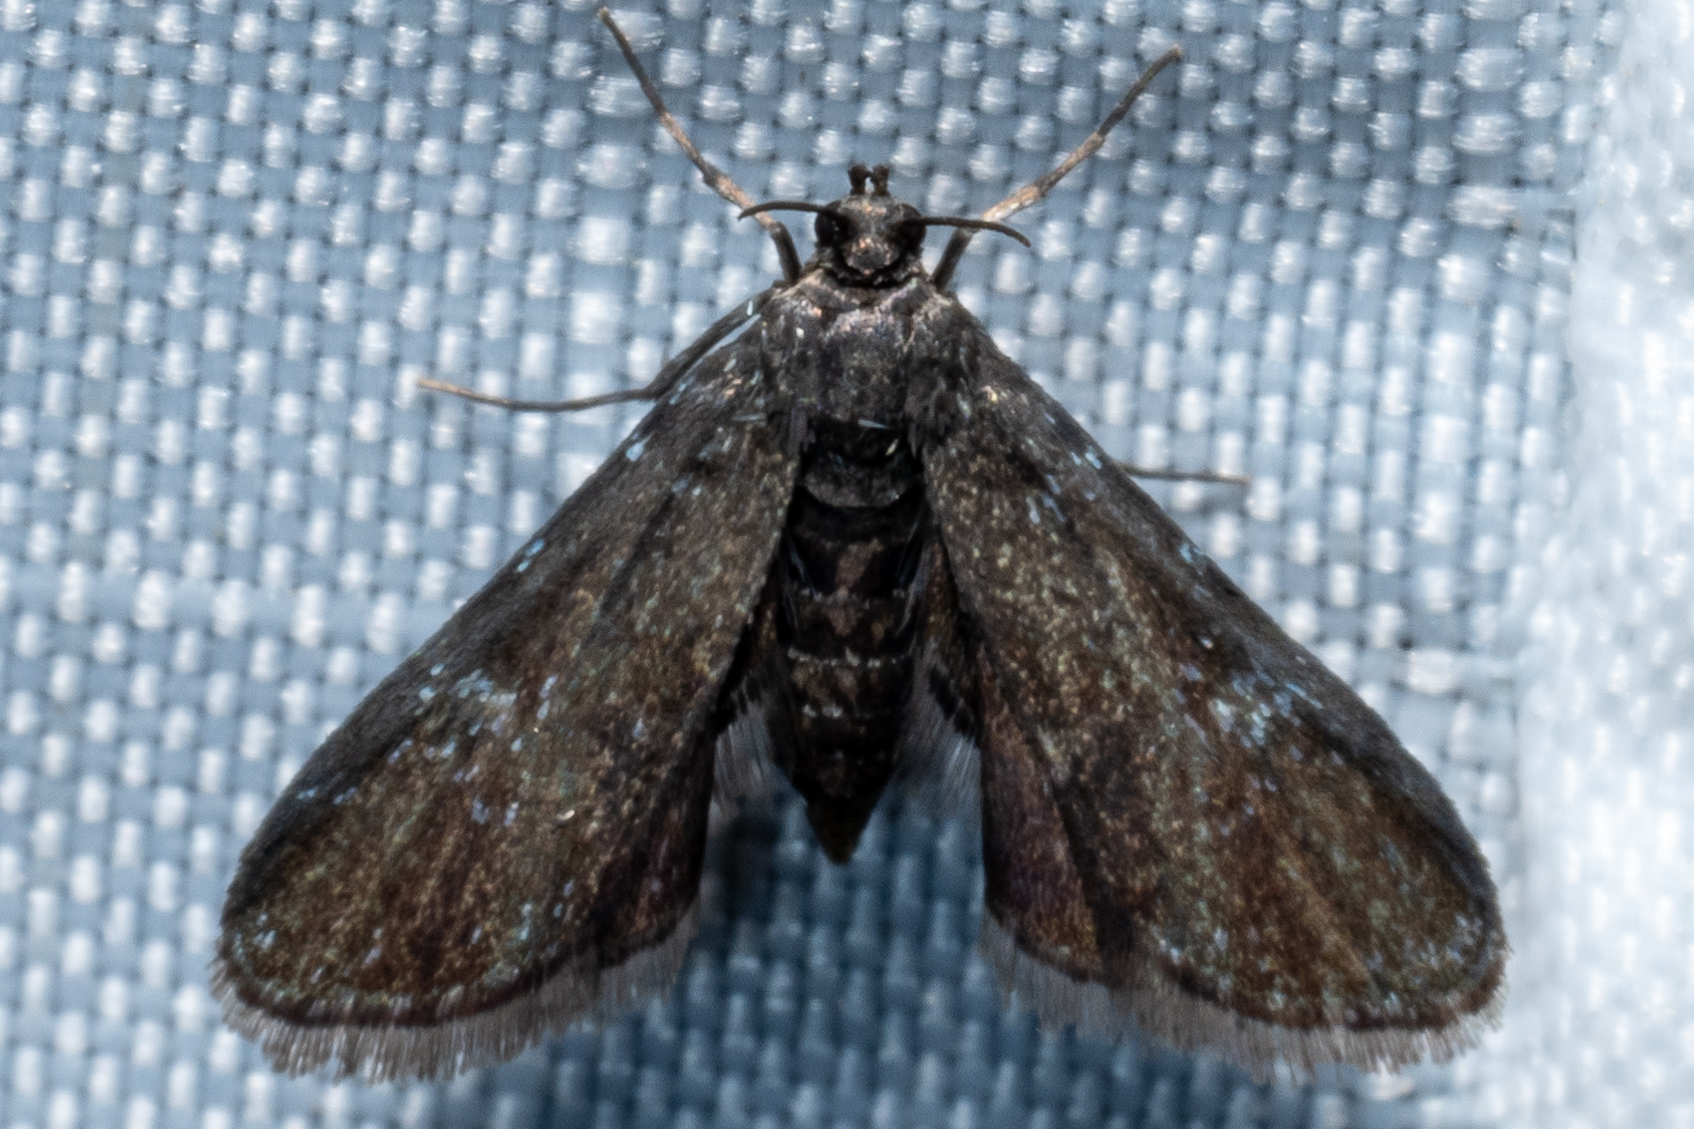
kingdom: Animalia
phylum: Arthropoda
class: Insecta
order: Lepidoptera
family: Crambidae
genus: Elophila
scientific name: Elophila tinealis
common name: Black duckweed moth
